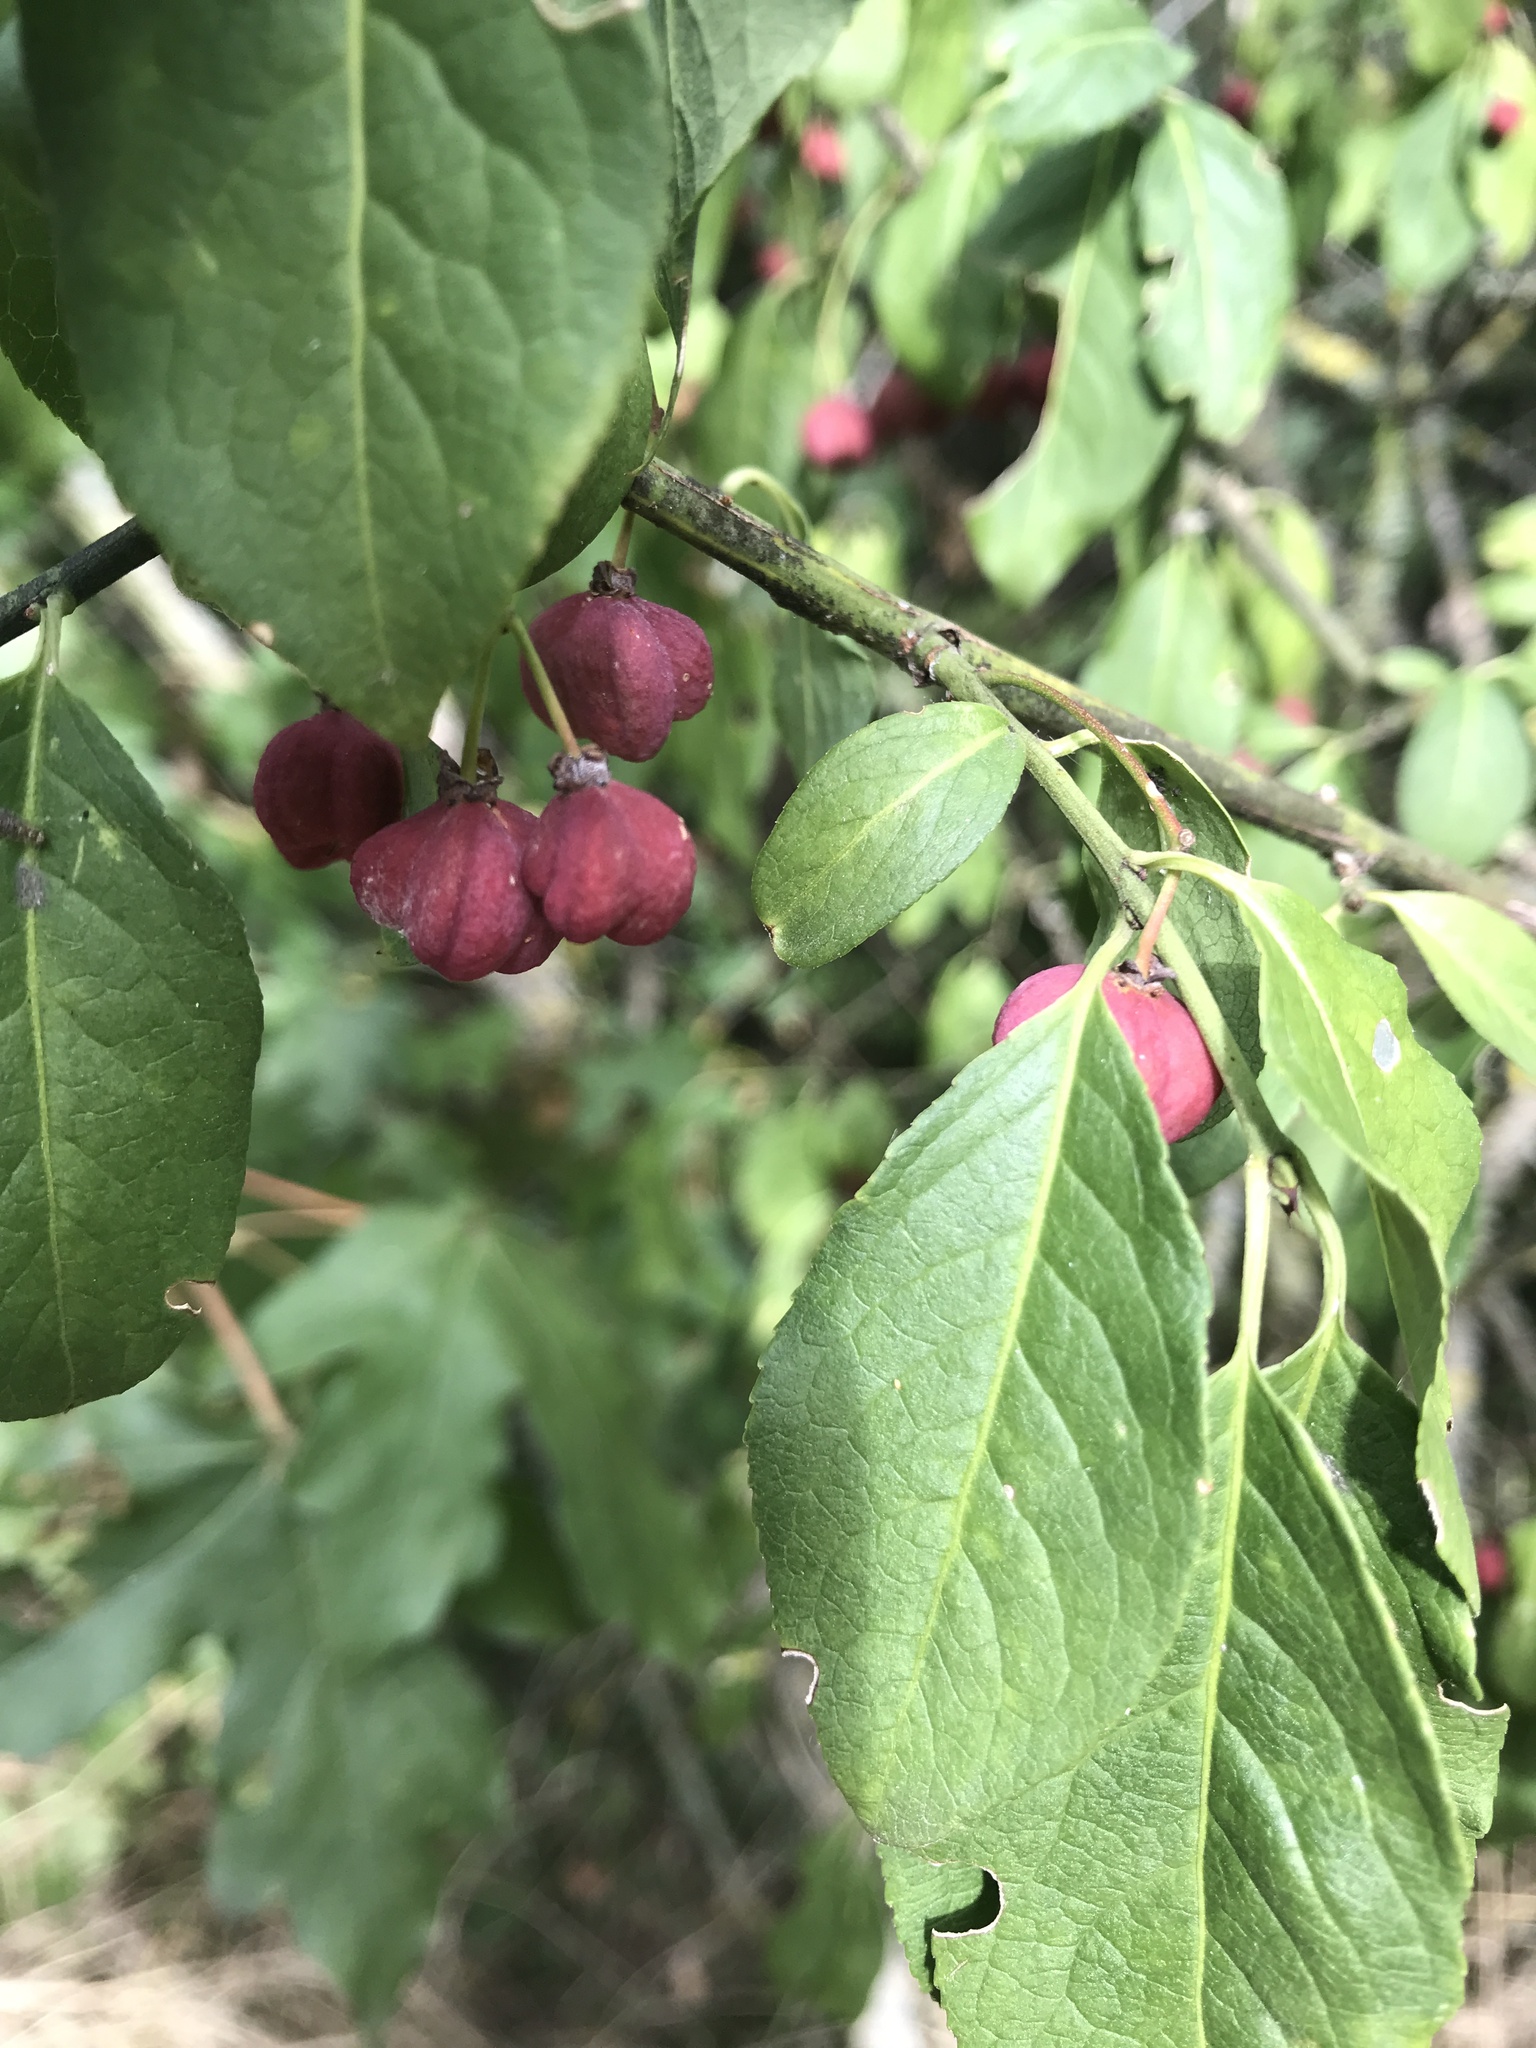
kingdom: Plantae
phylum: Tracheophyta
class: Magnoliopsida
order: Celastrales
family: Celastraceae
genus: Euonymus
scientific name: Euonymus europaeus
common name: Spindle
